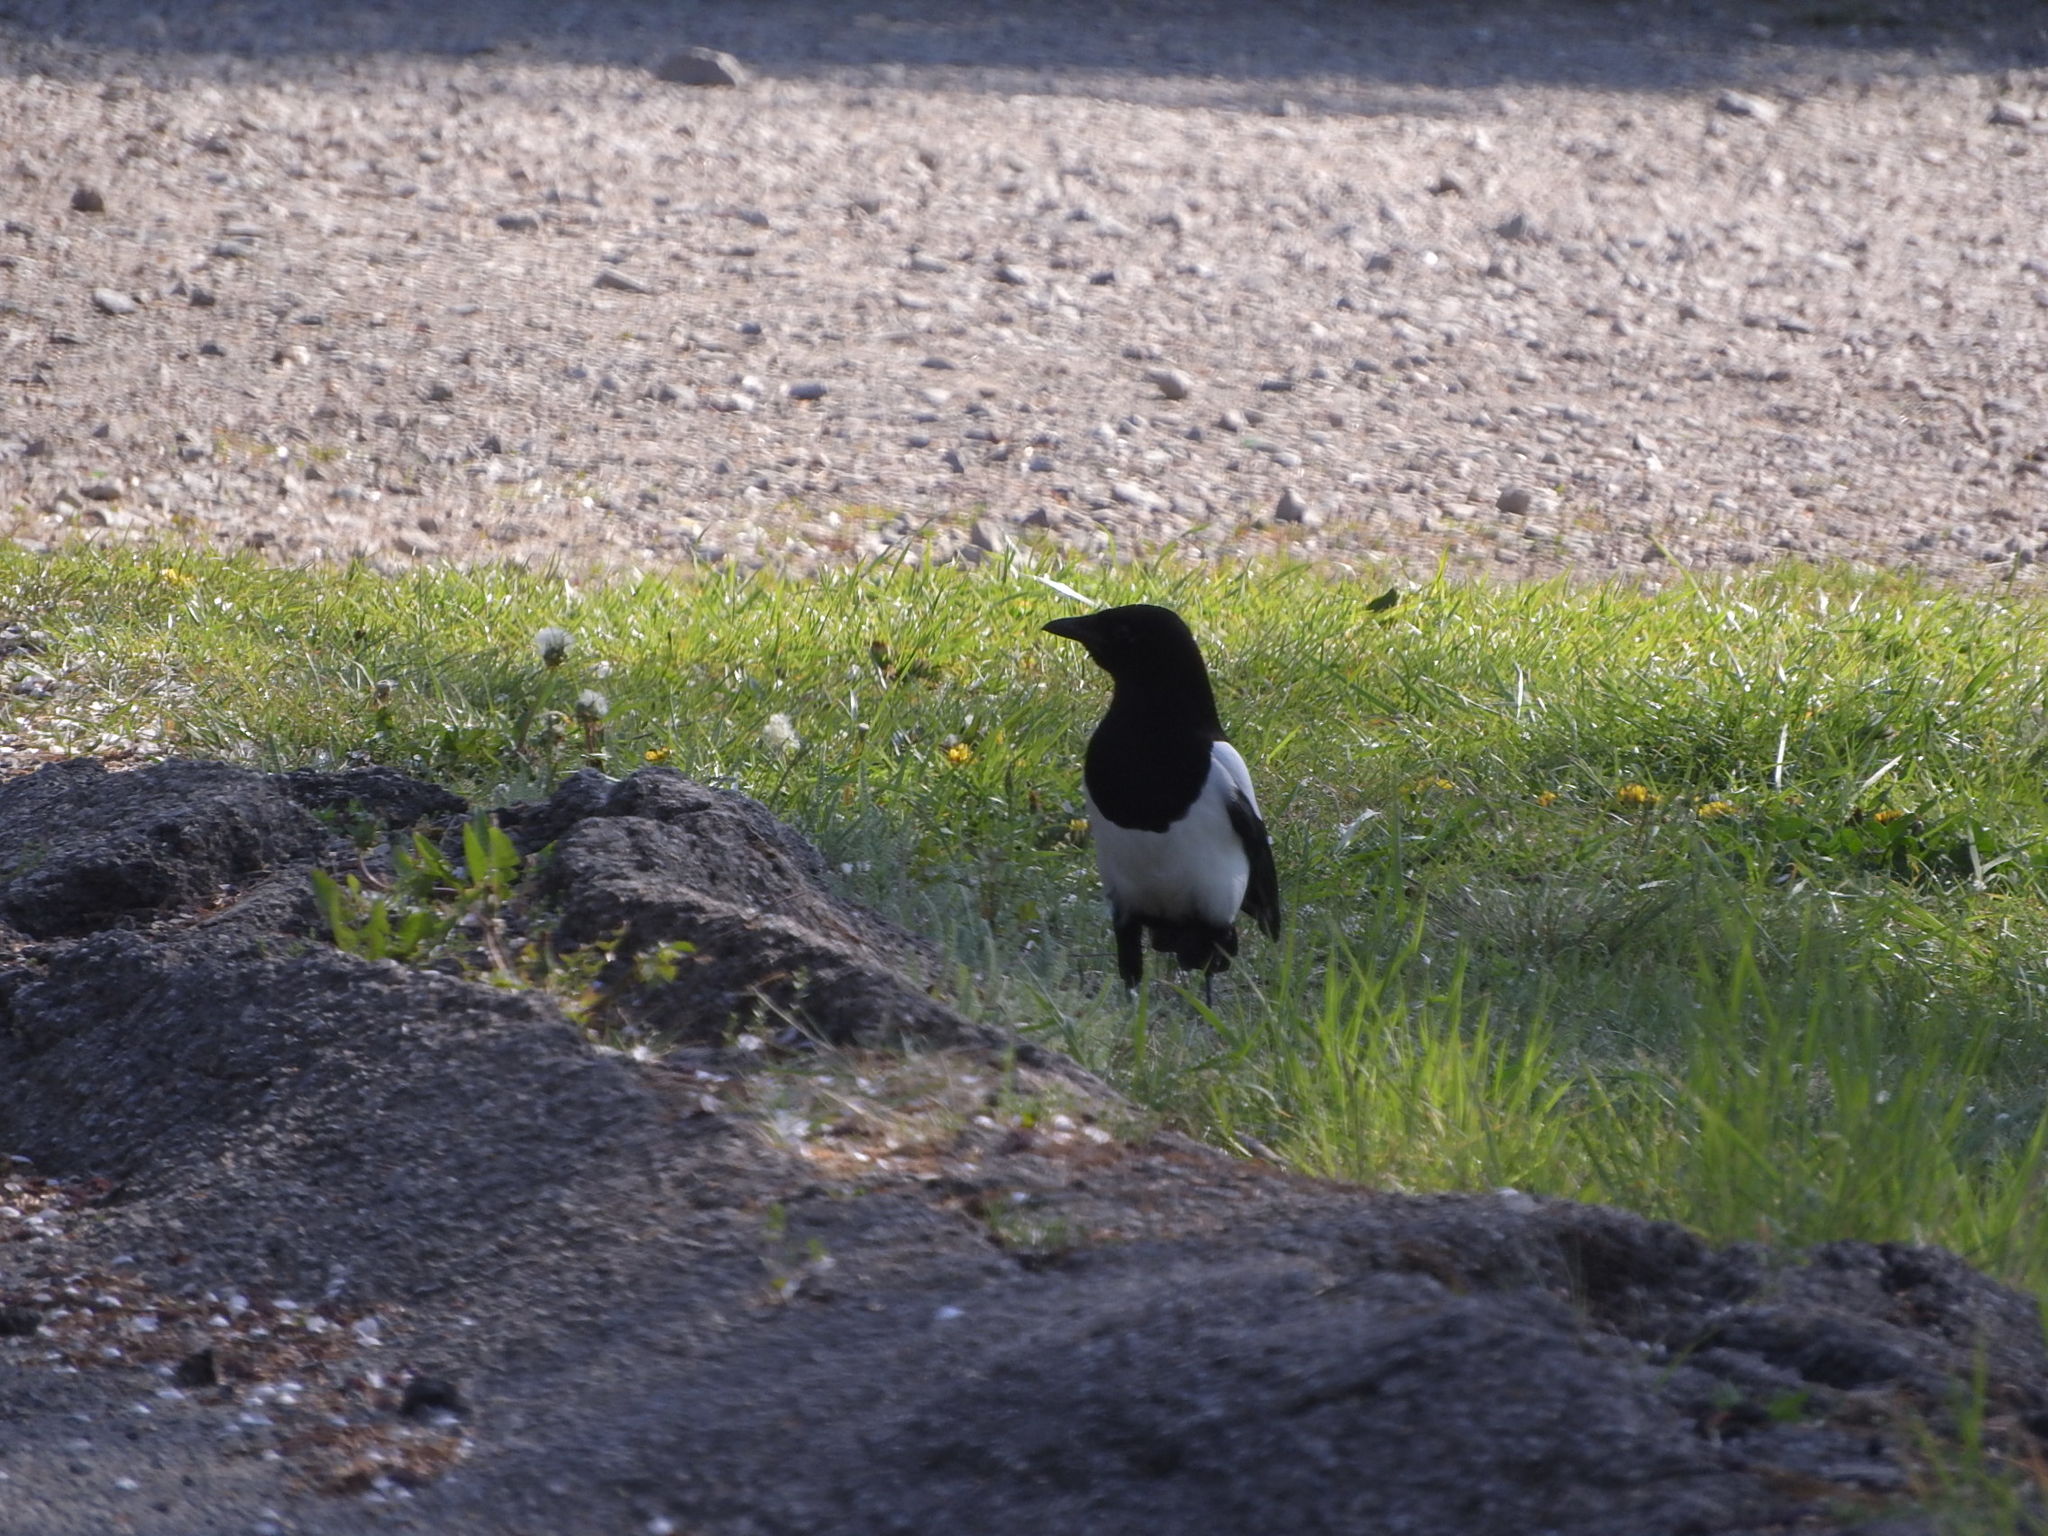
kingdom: Animalia
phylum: Chordata
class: Aves
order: Passeriformes
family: Corvidae
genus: Pica
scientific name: Pica pica
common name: Eurasian magpie
